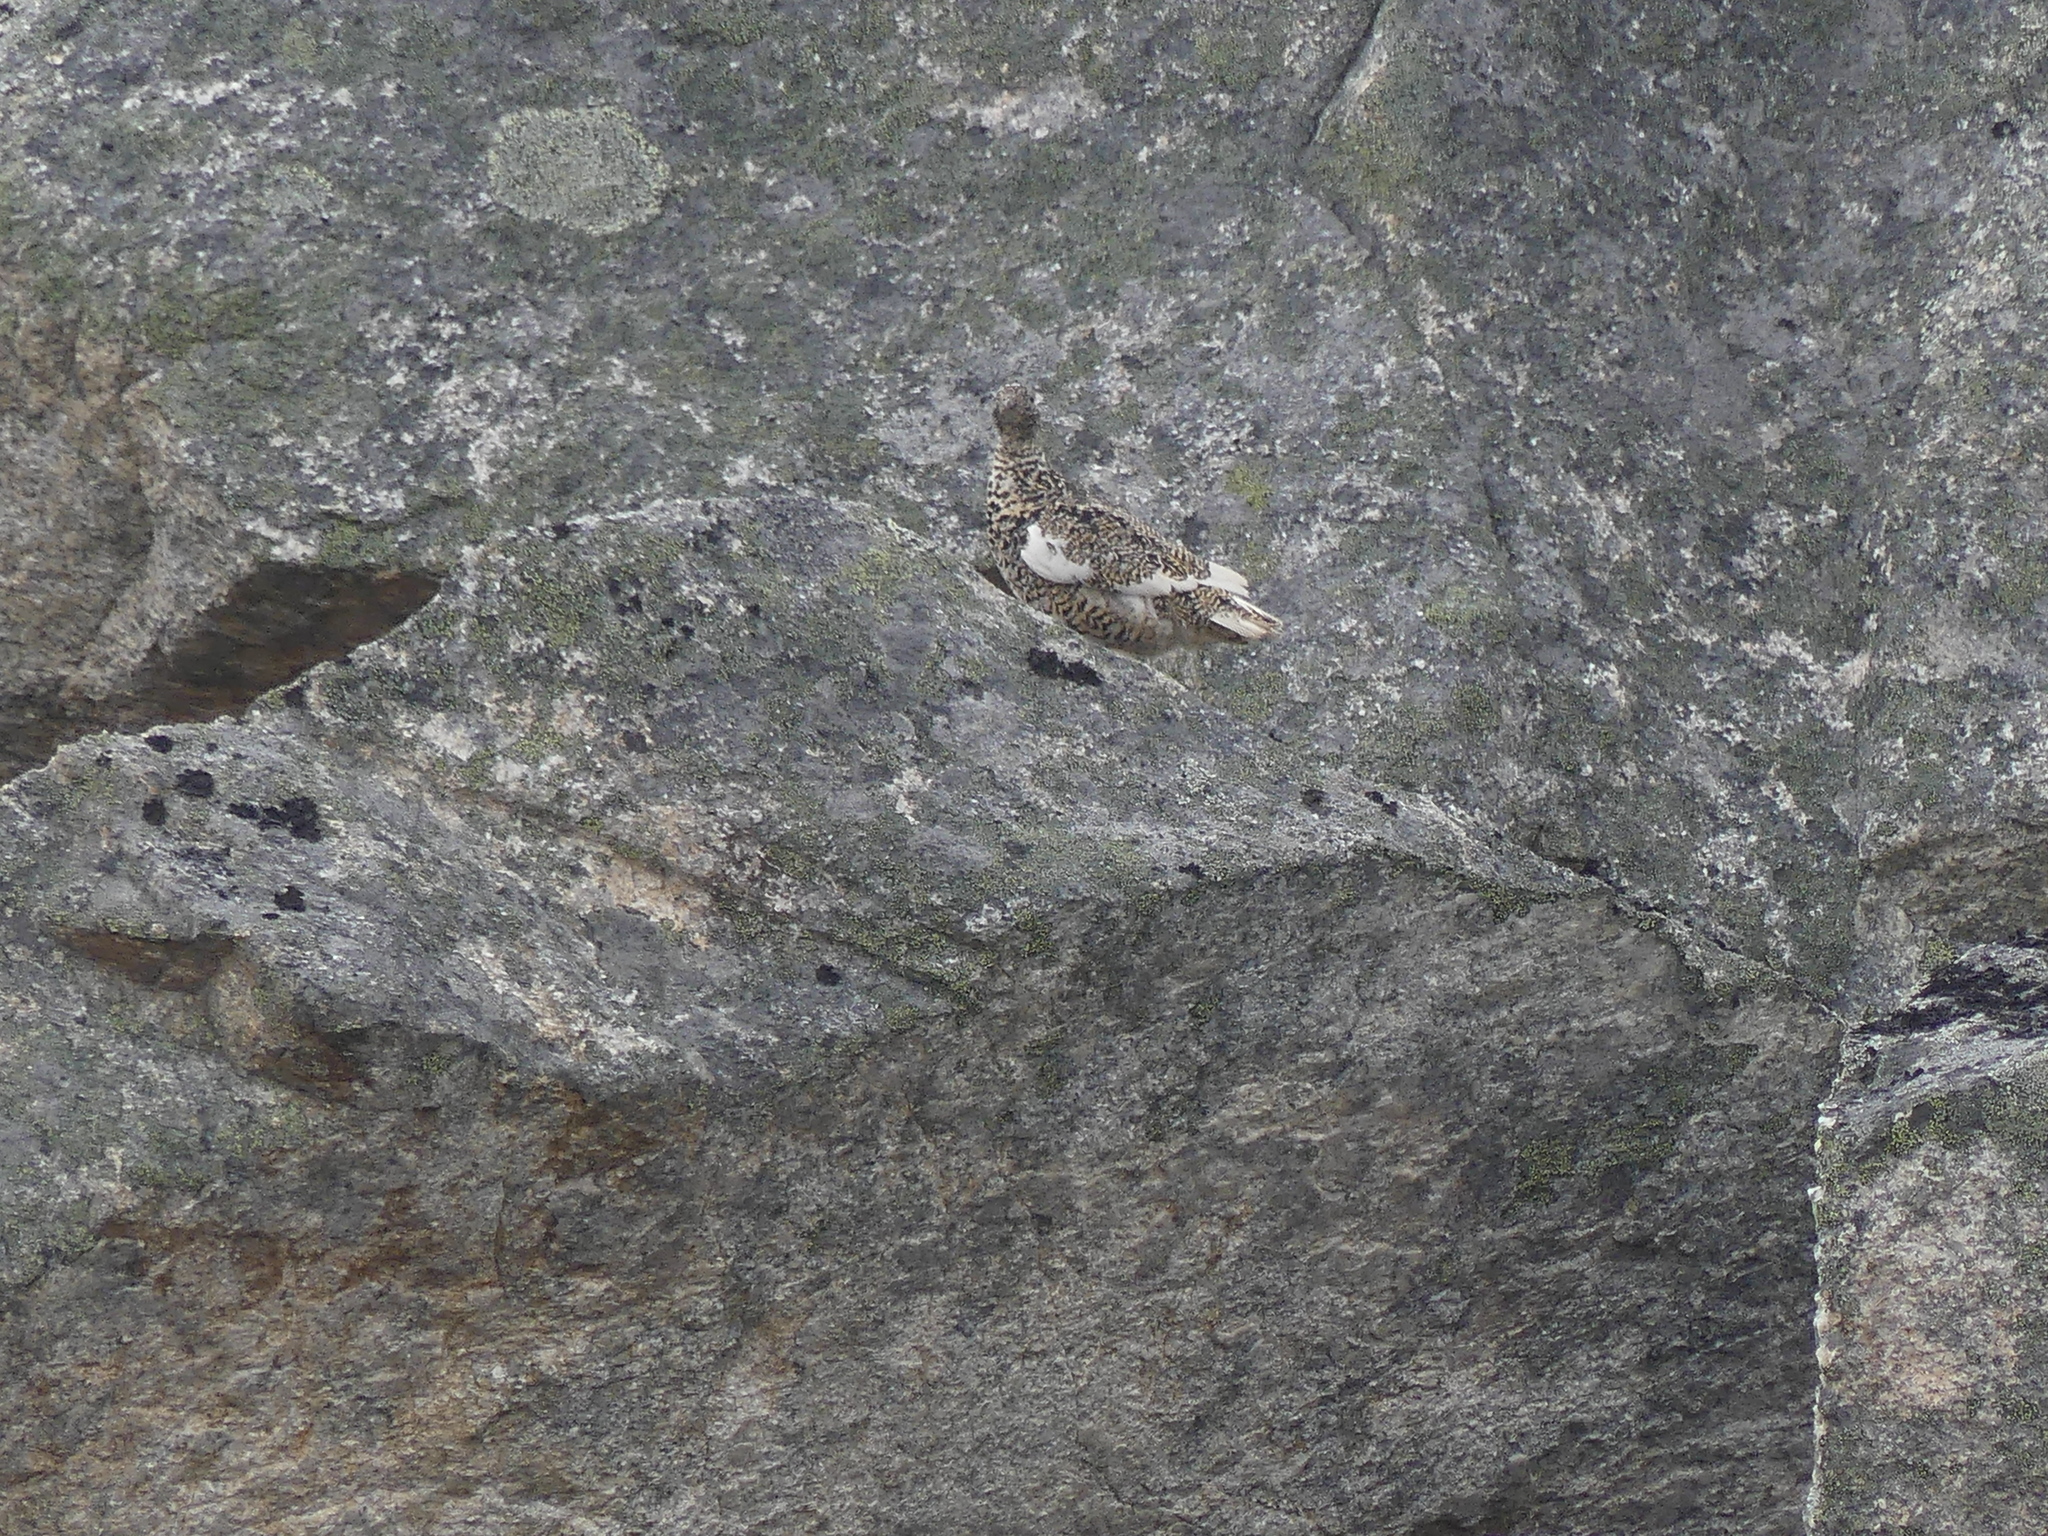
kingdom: Animalia
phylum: Chordata
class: Aves
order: Galliformes
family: Phasianidae
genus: Lagopus
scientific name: Lagopus leucura
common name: White-tailed ptarmigan
